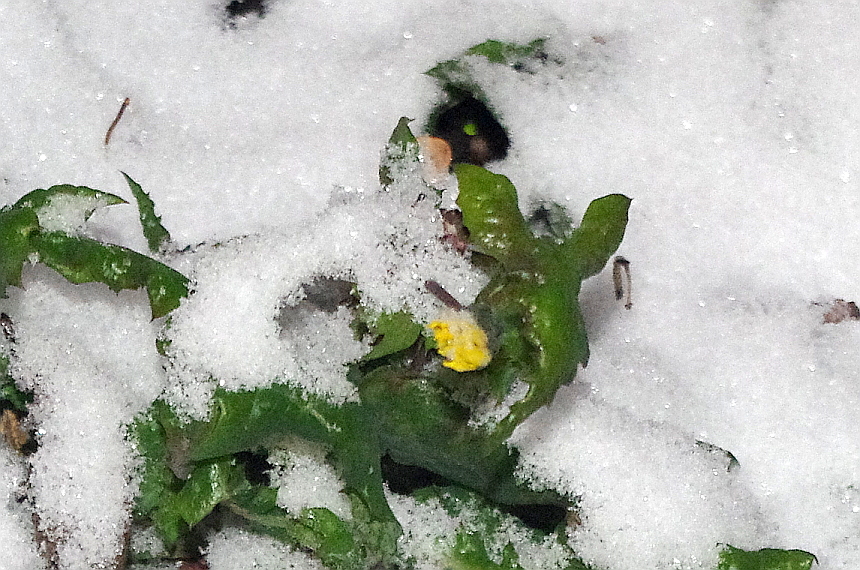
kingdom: Plantae
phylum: Tracheophyta
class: Magnoliopsida
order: Asterales
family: Asteraceae
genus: Sonchus
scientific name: Sonchus oleraceus
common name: Common sowthistle
